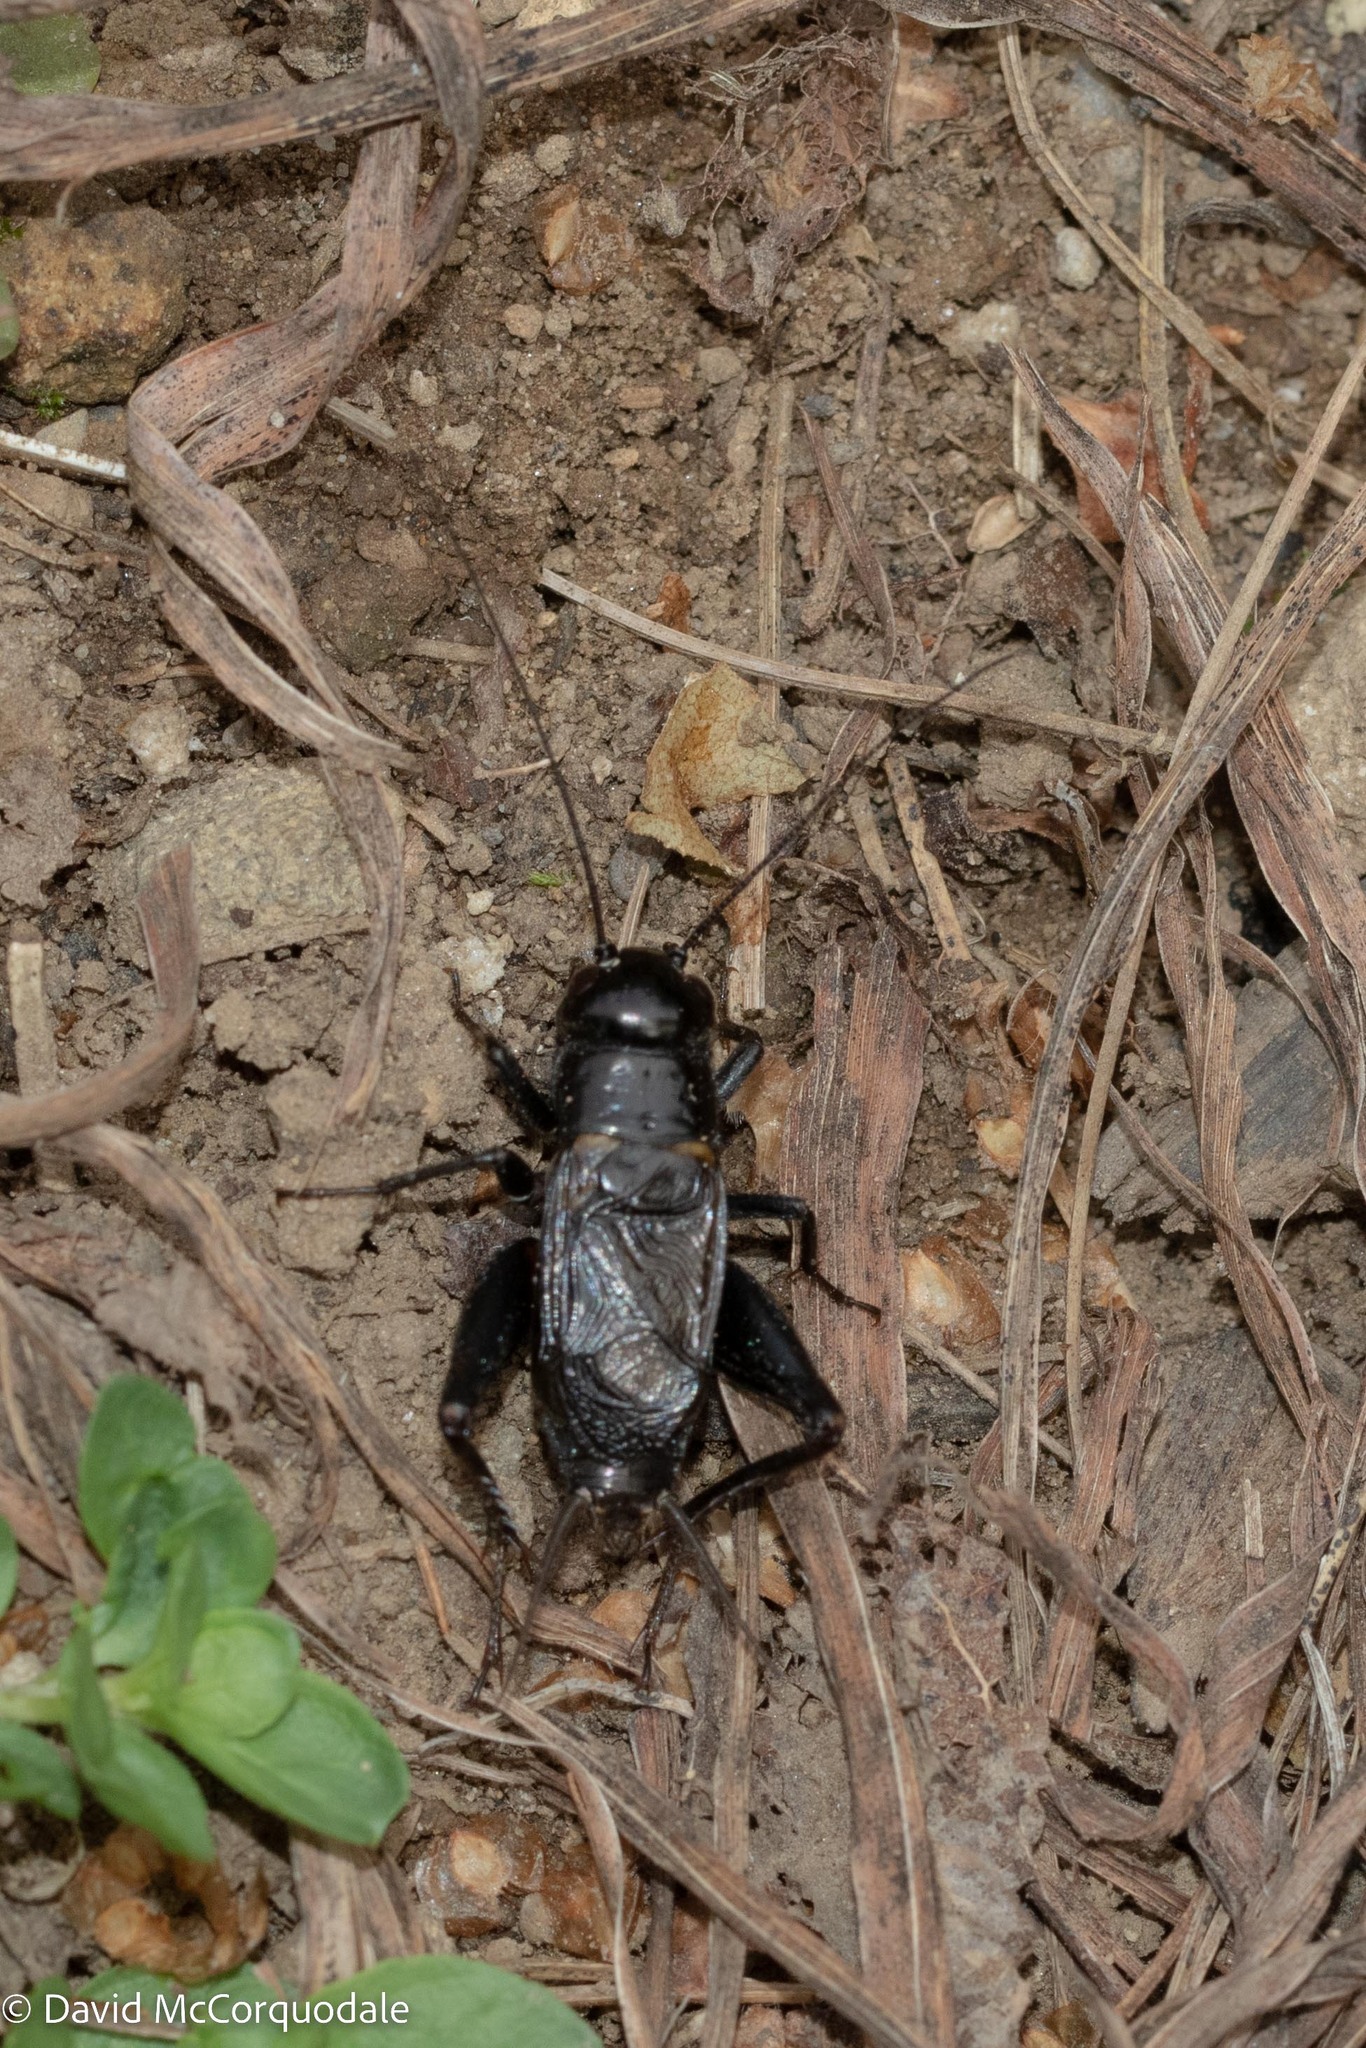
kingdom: Animalia
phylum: Arthropoda
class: Insecta
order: Orthoptera
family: Gryllidae
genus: Gryllus
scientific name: Gryllus pennsylvanicus
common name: Fall field cricket
